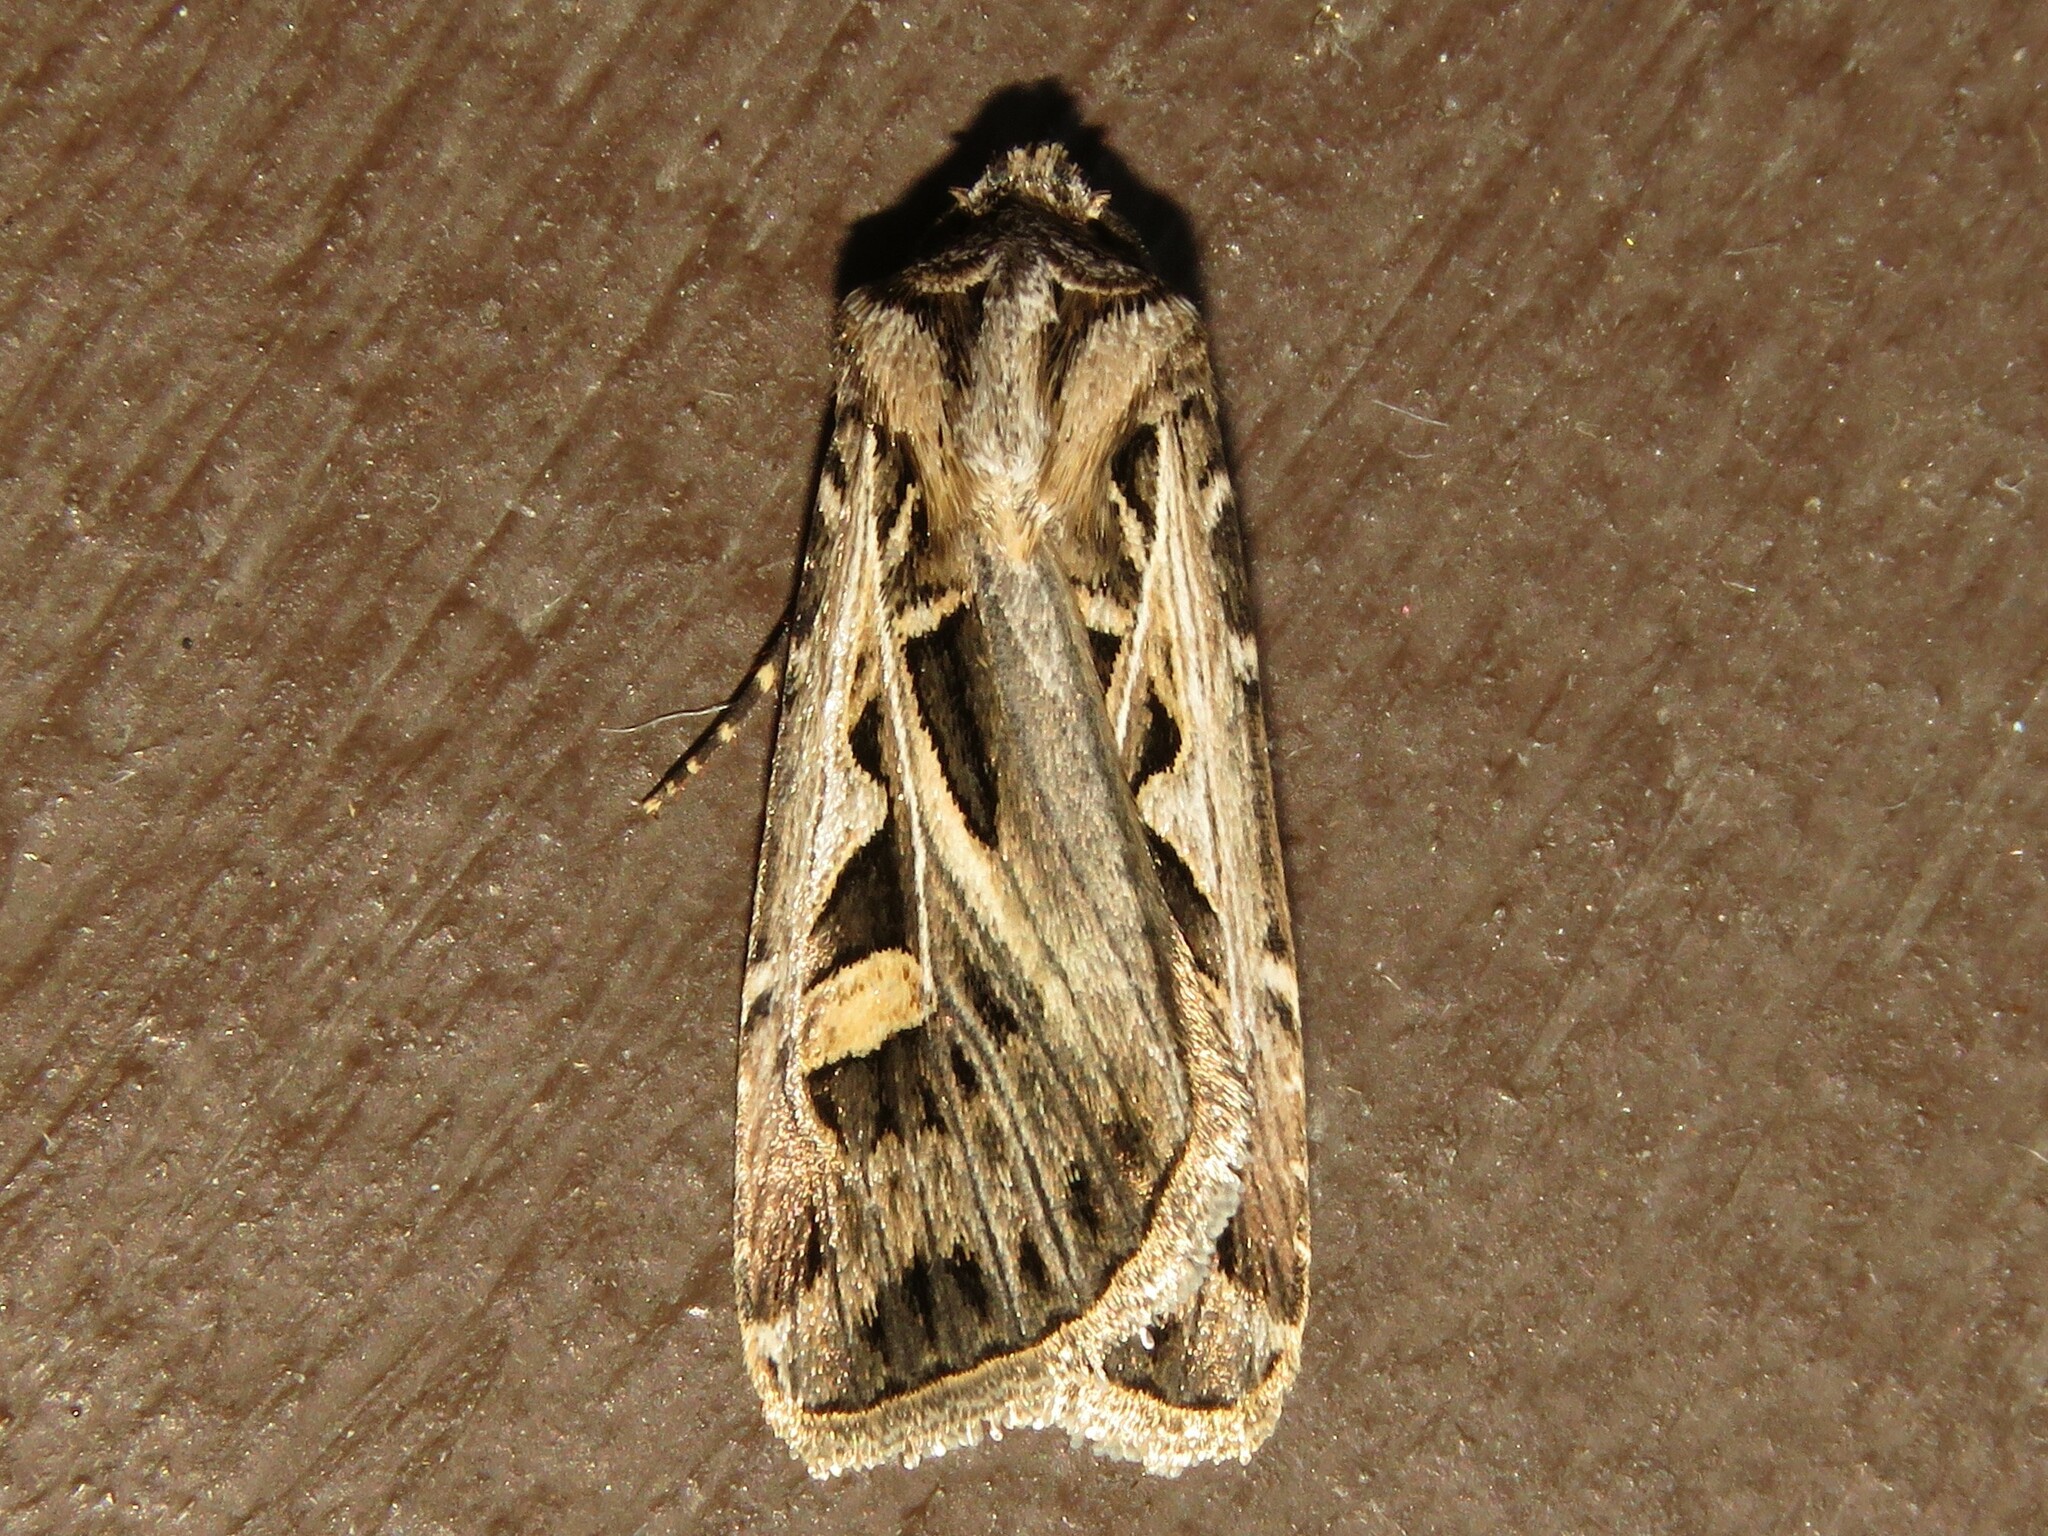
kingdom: Animalia
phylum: Arthropoda
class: Insecta
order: Lepidoptera
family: Noctuidae
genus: Feltia
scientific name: Feltia jaculifera
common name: Dingy cutworm moth
